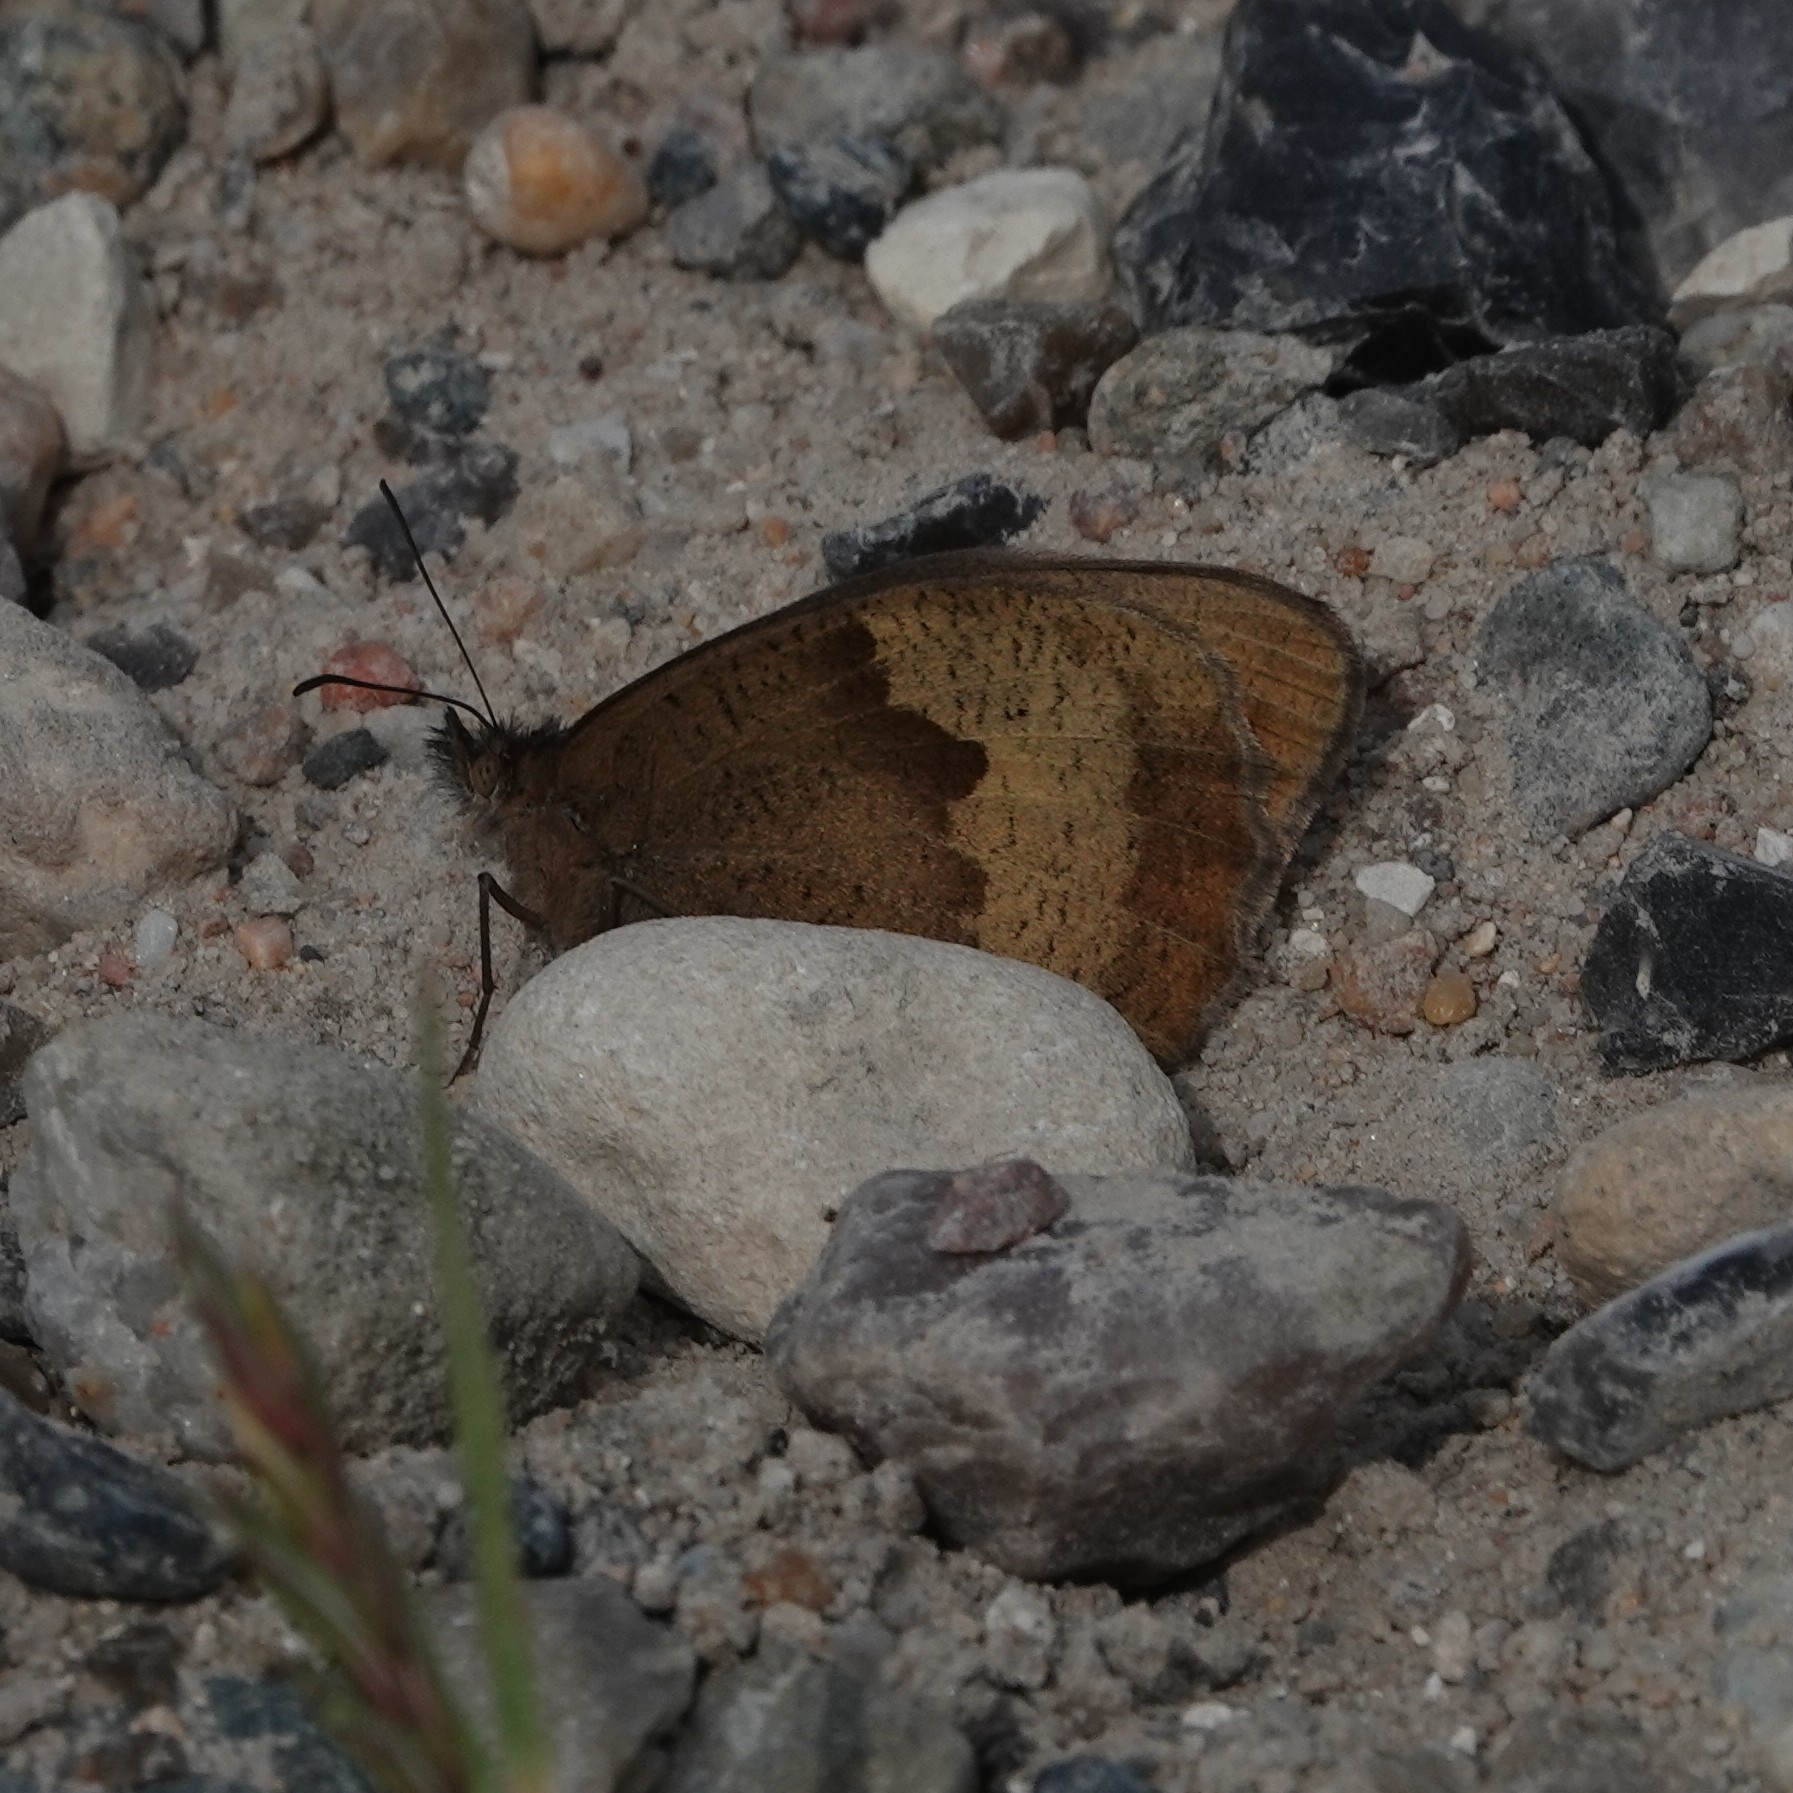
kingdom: Animalia
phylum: Arthropoda
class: Insecta
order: Lepidoptera
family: Nymphalidae
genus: Maniola
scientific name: Maniola jurtina
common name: Meadow brown
